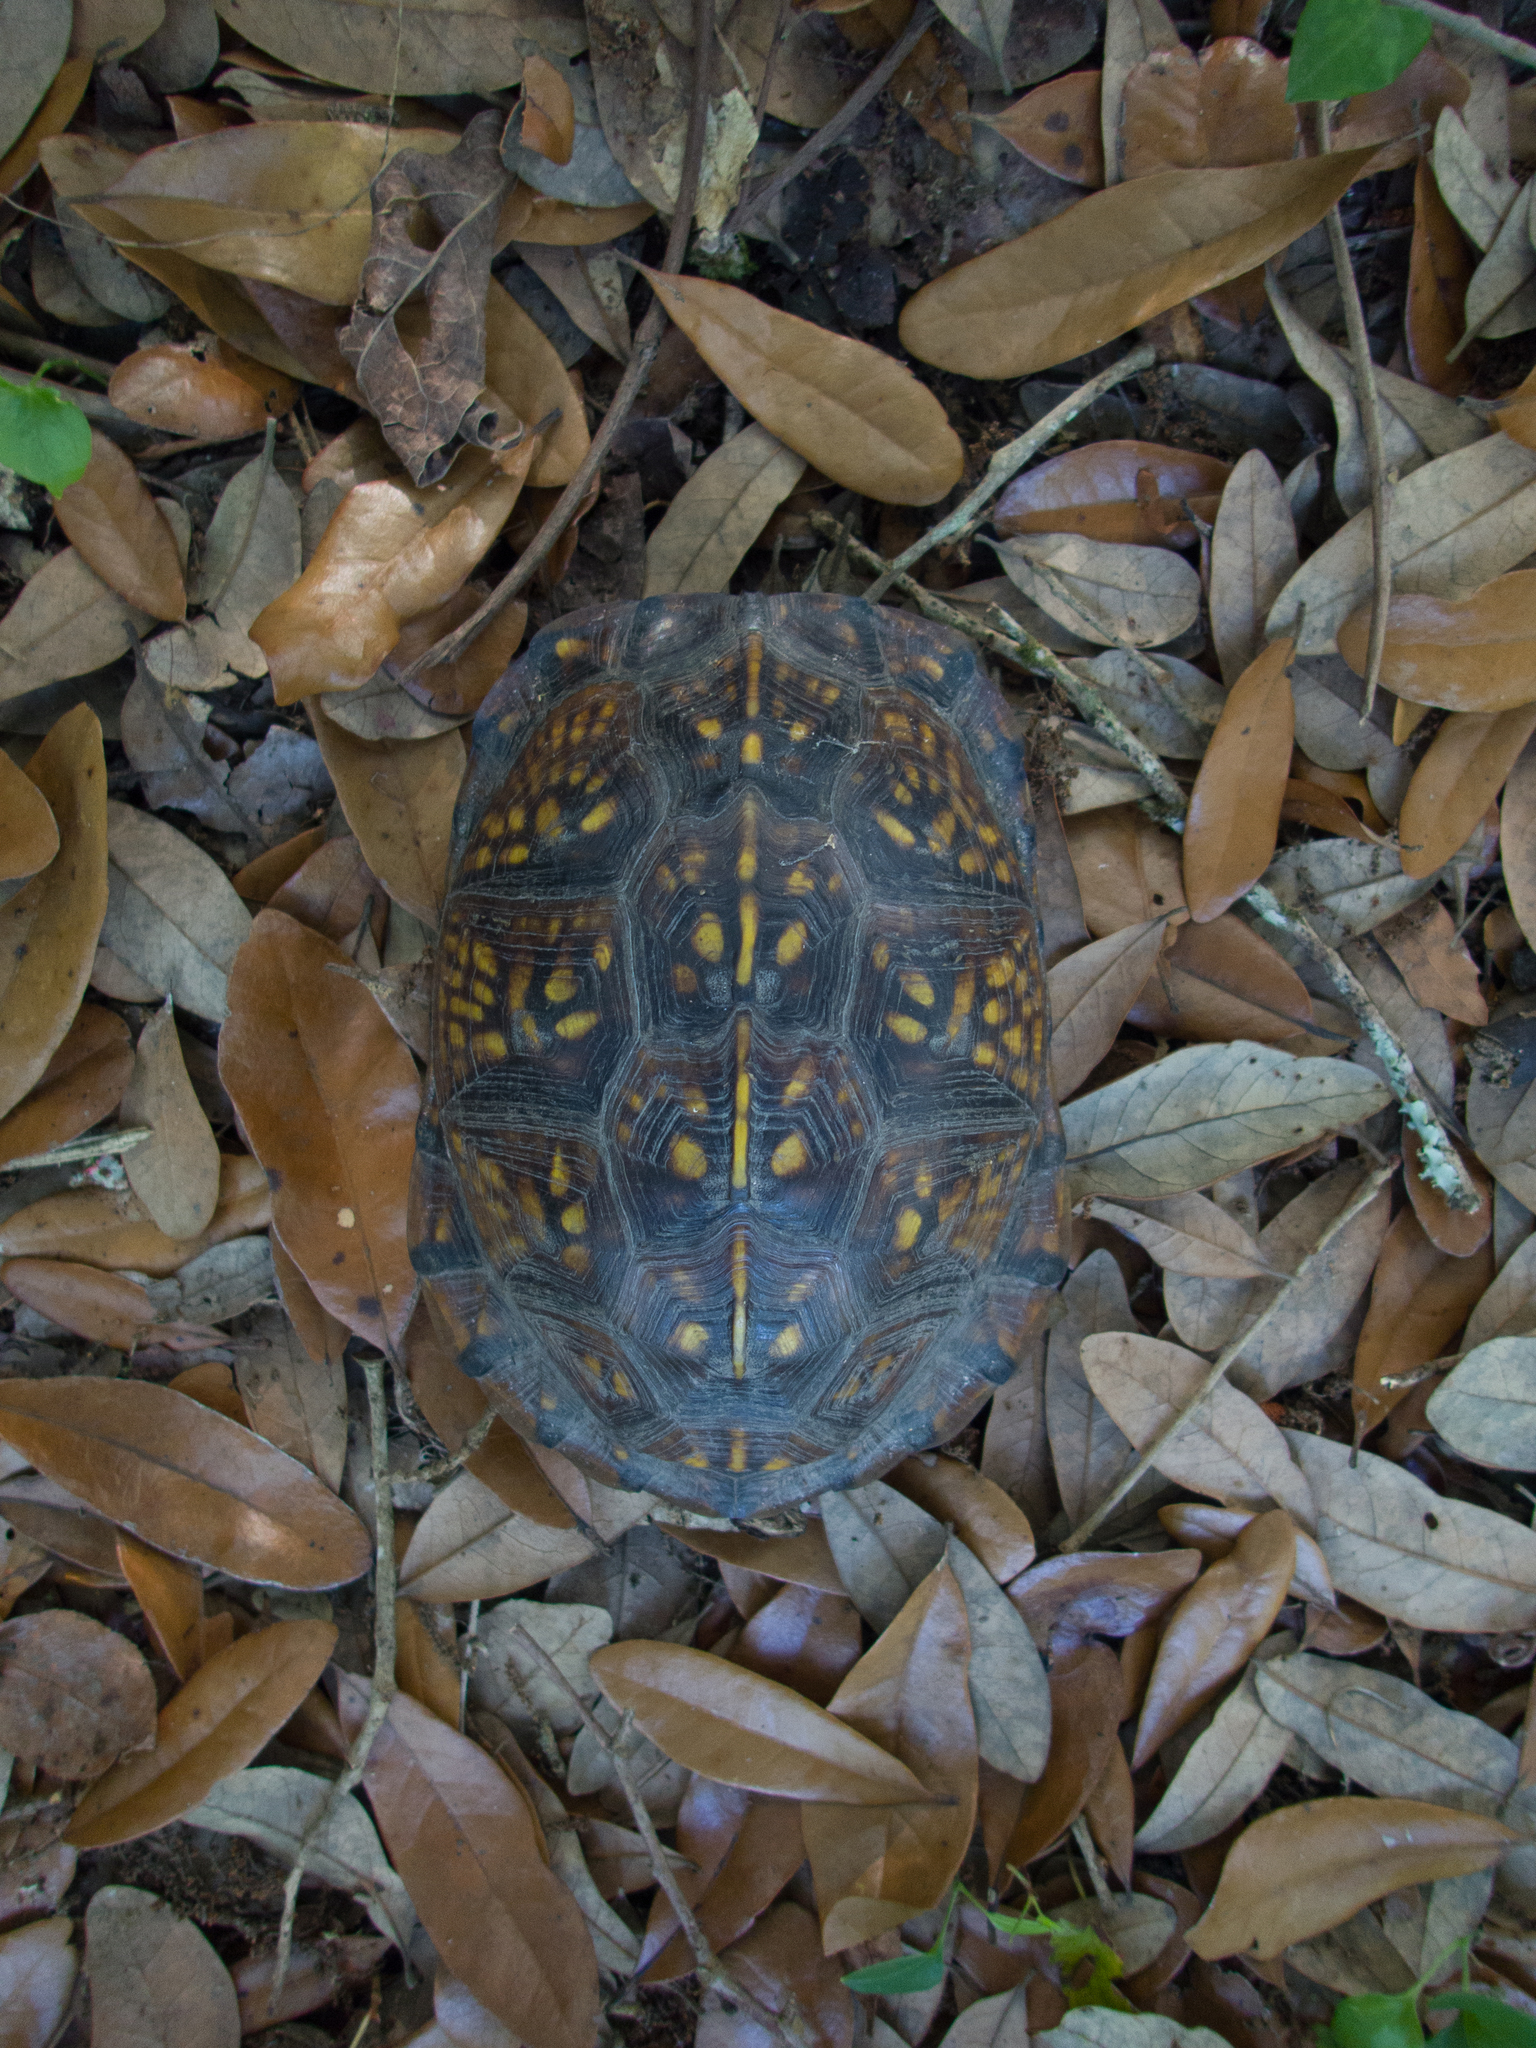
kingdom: Animalia
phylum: Chordata
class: Testudines
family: Emydidae
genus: Terrapene
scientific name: Terrapene carolina
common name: Common box turtle
